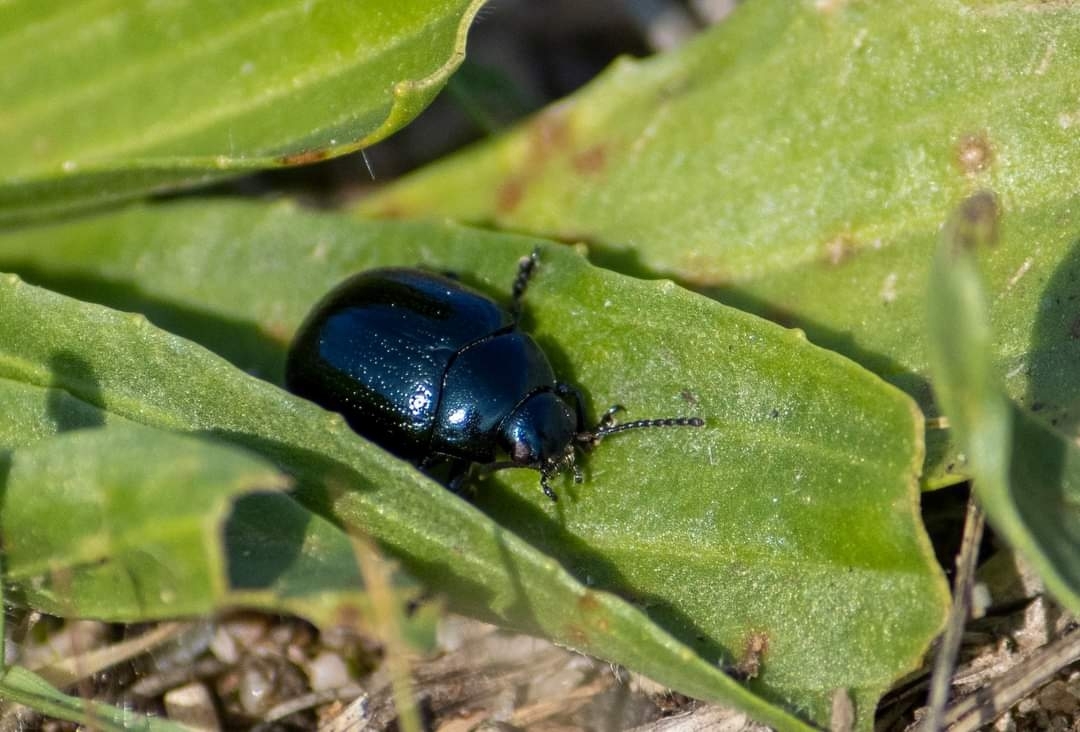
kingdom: Animalia
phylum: Arthropoda
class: Insecta
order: Coleoptera
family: Chrysomelidae
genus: Chrysolina
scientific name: Chrysolina haemoptera
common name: Plantain leaf beetle
